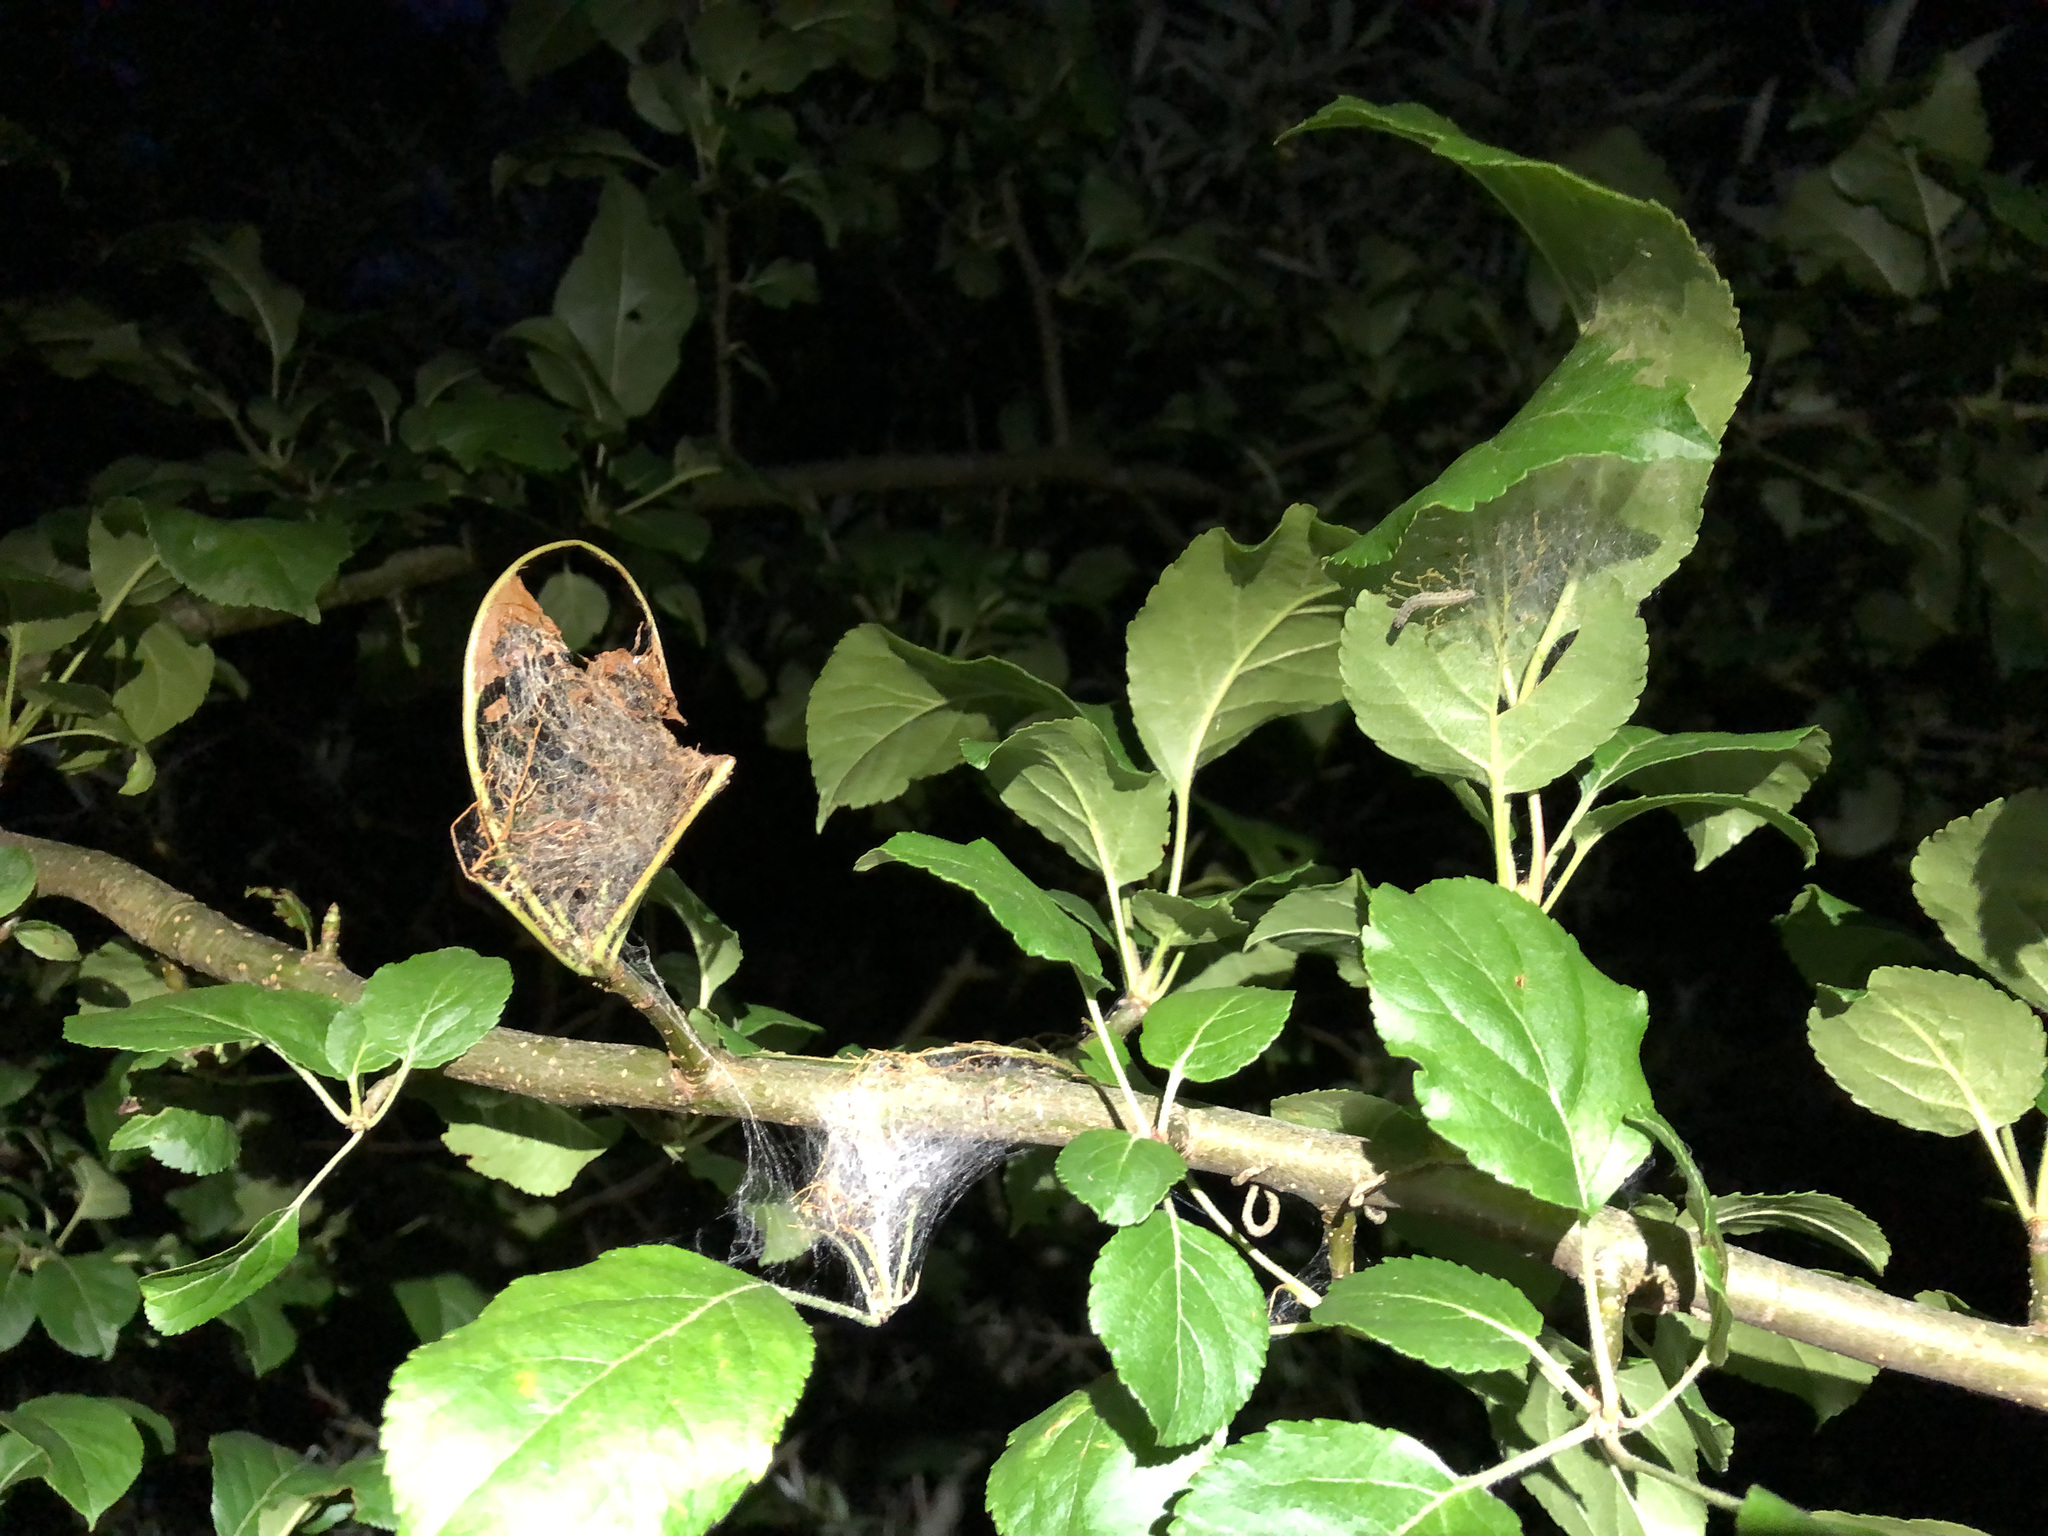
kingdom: Animalia
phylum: Arthropoda
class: Insecta
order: Lepidoptera
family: Yponomeutidae
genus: Yponomeuta
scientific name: Yponomeuta padella
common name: Orchard ermine
